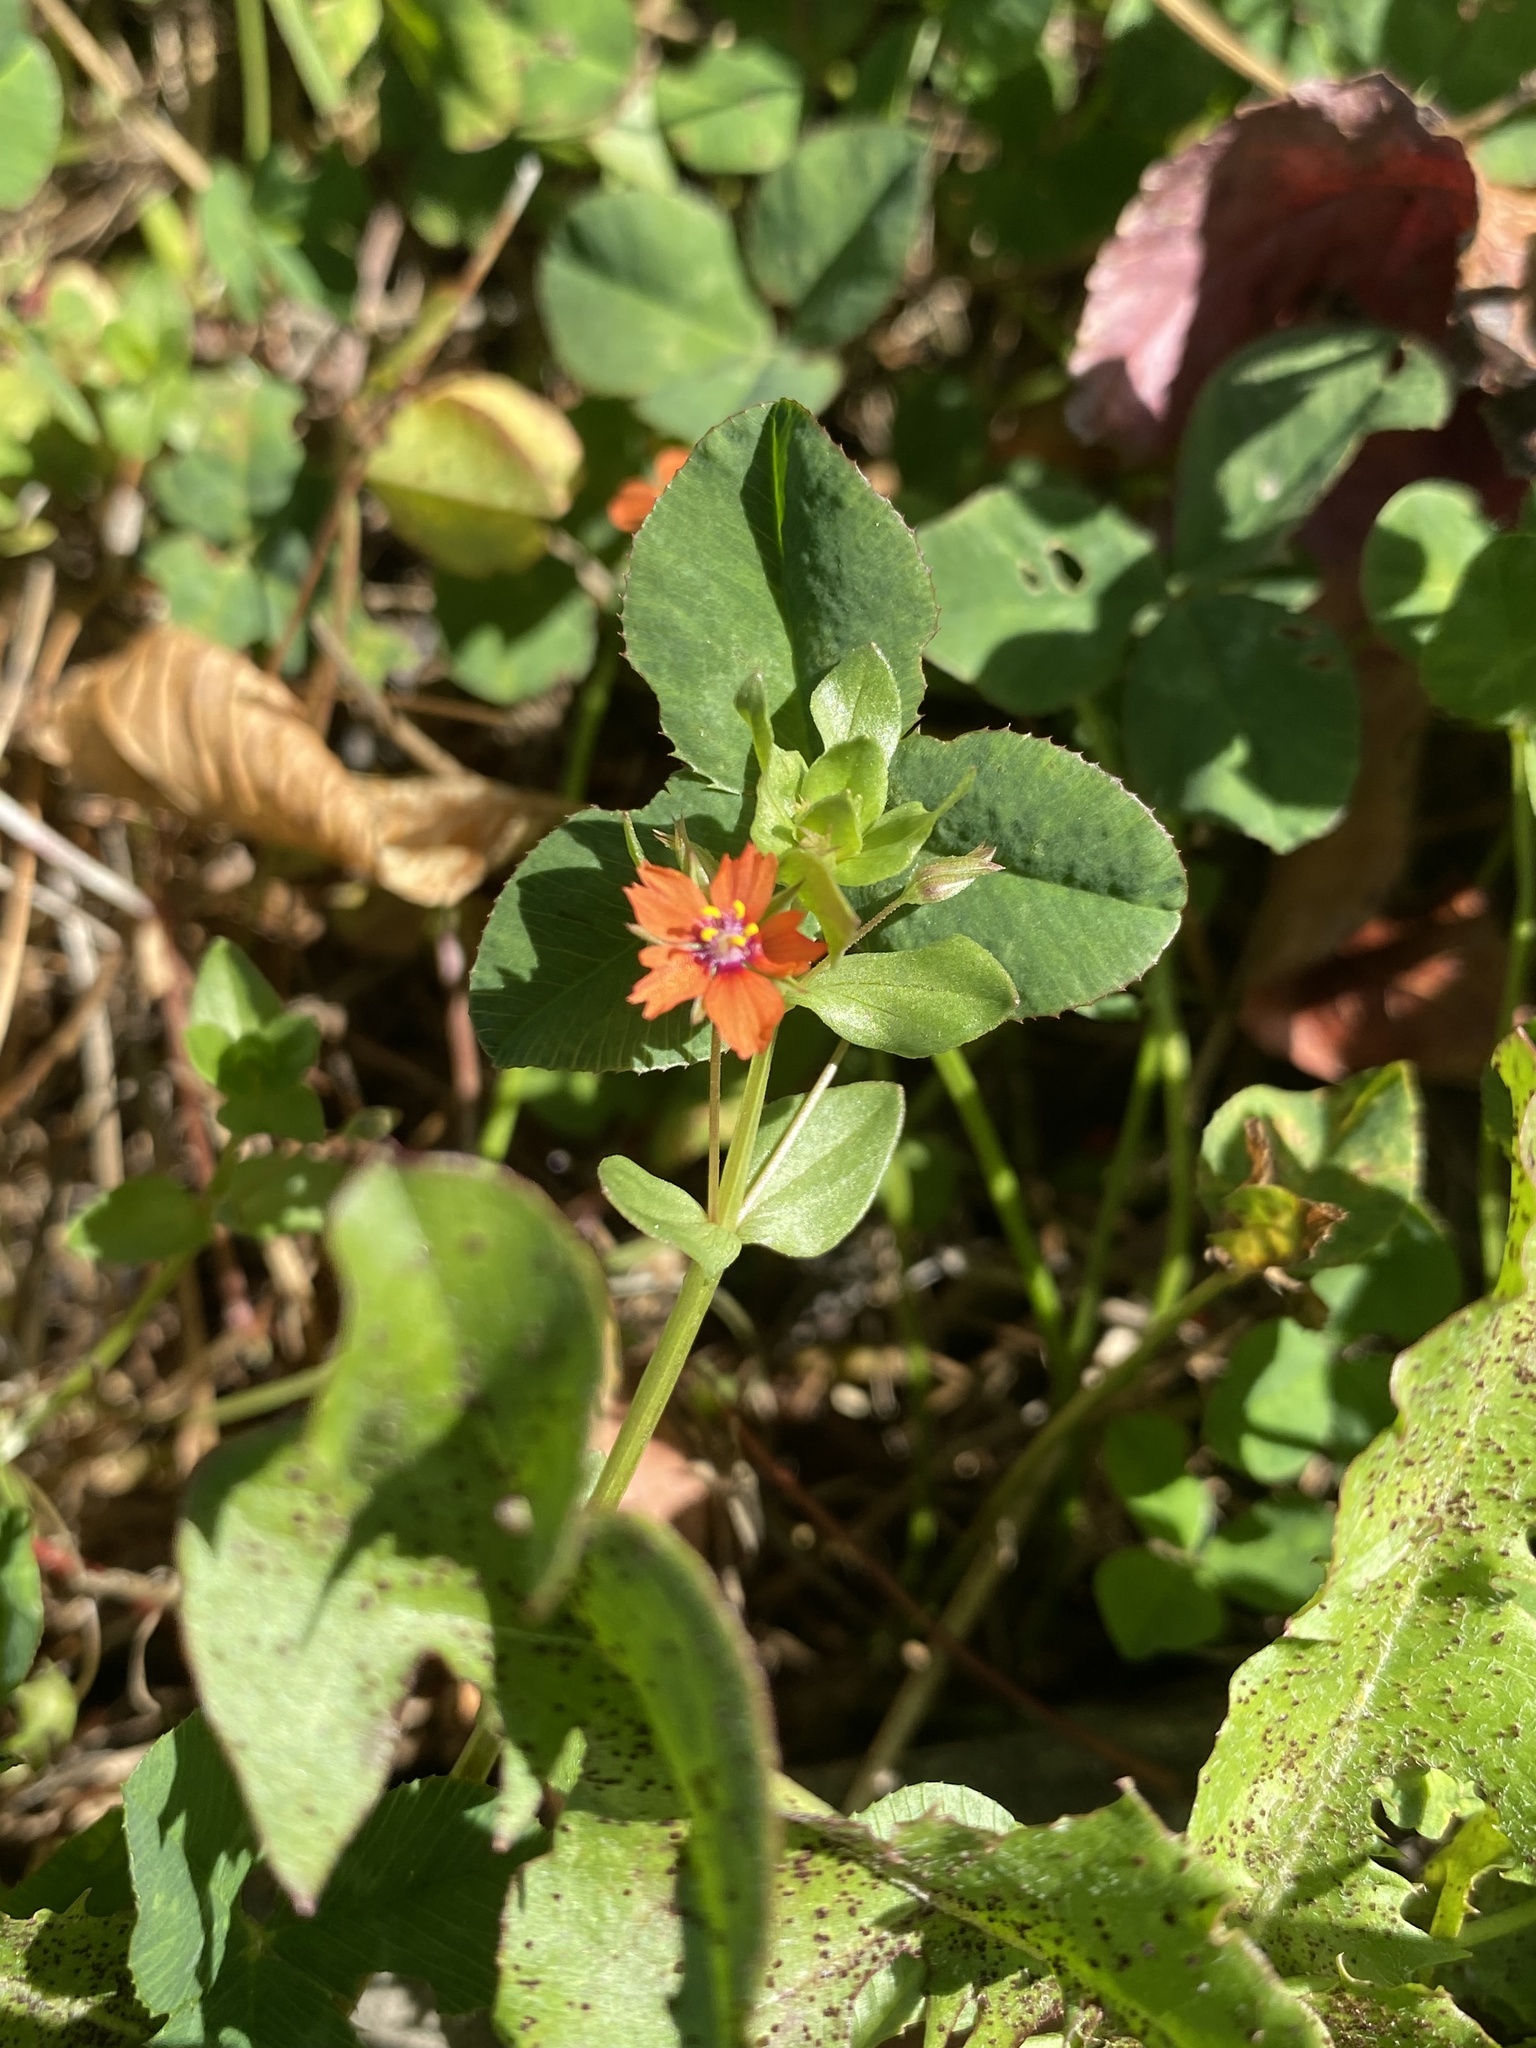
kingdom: Plantae
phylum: Tracheophyta
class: Magnoliopsida
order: Ericales
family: Primulaceae
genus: Lysimachia
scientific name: Lysimachia arvensis
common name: Scarlet pimpernel
